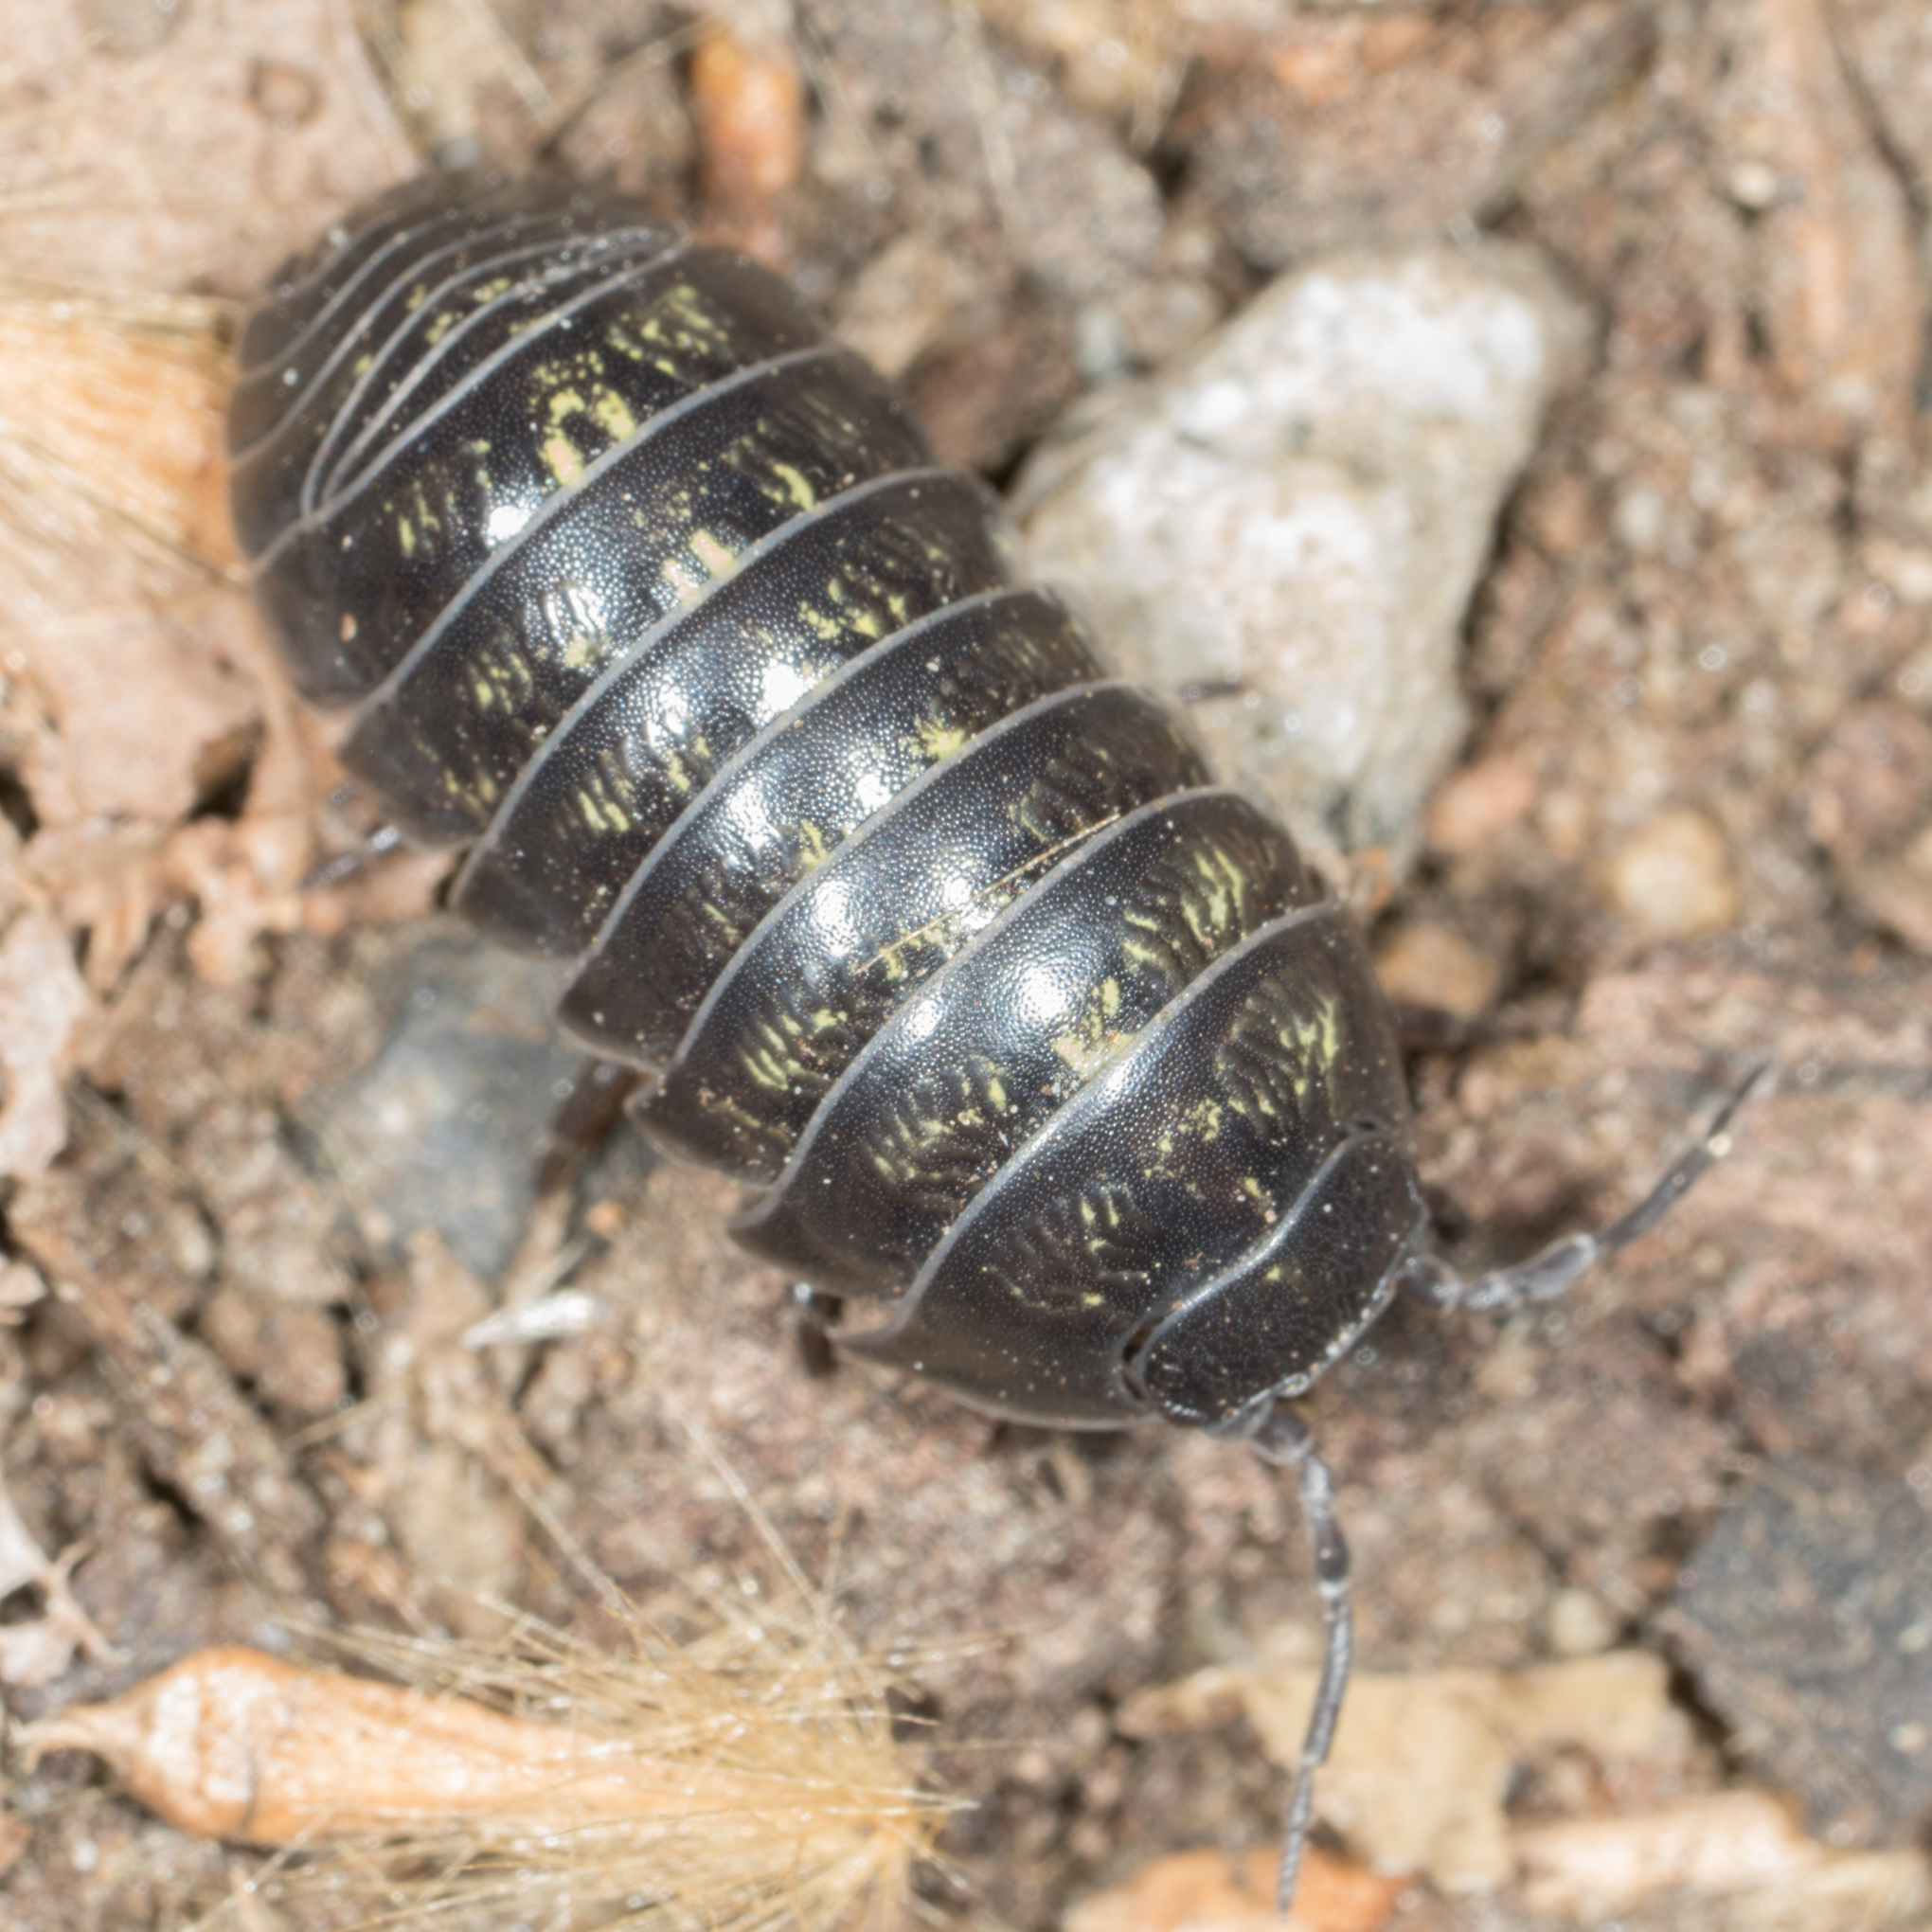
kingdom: Animalia
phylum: Arthropoda
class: Malacostraca
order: Isopoda
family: Armadillidiidae
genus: Armadillidium
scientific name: Armadillidium vulgare
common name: Common pill woodlouse
